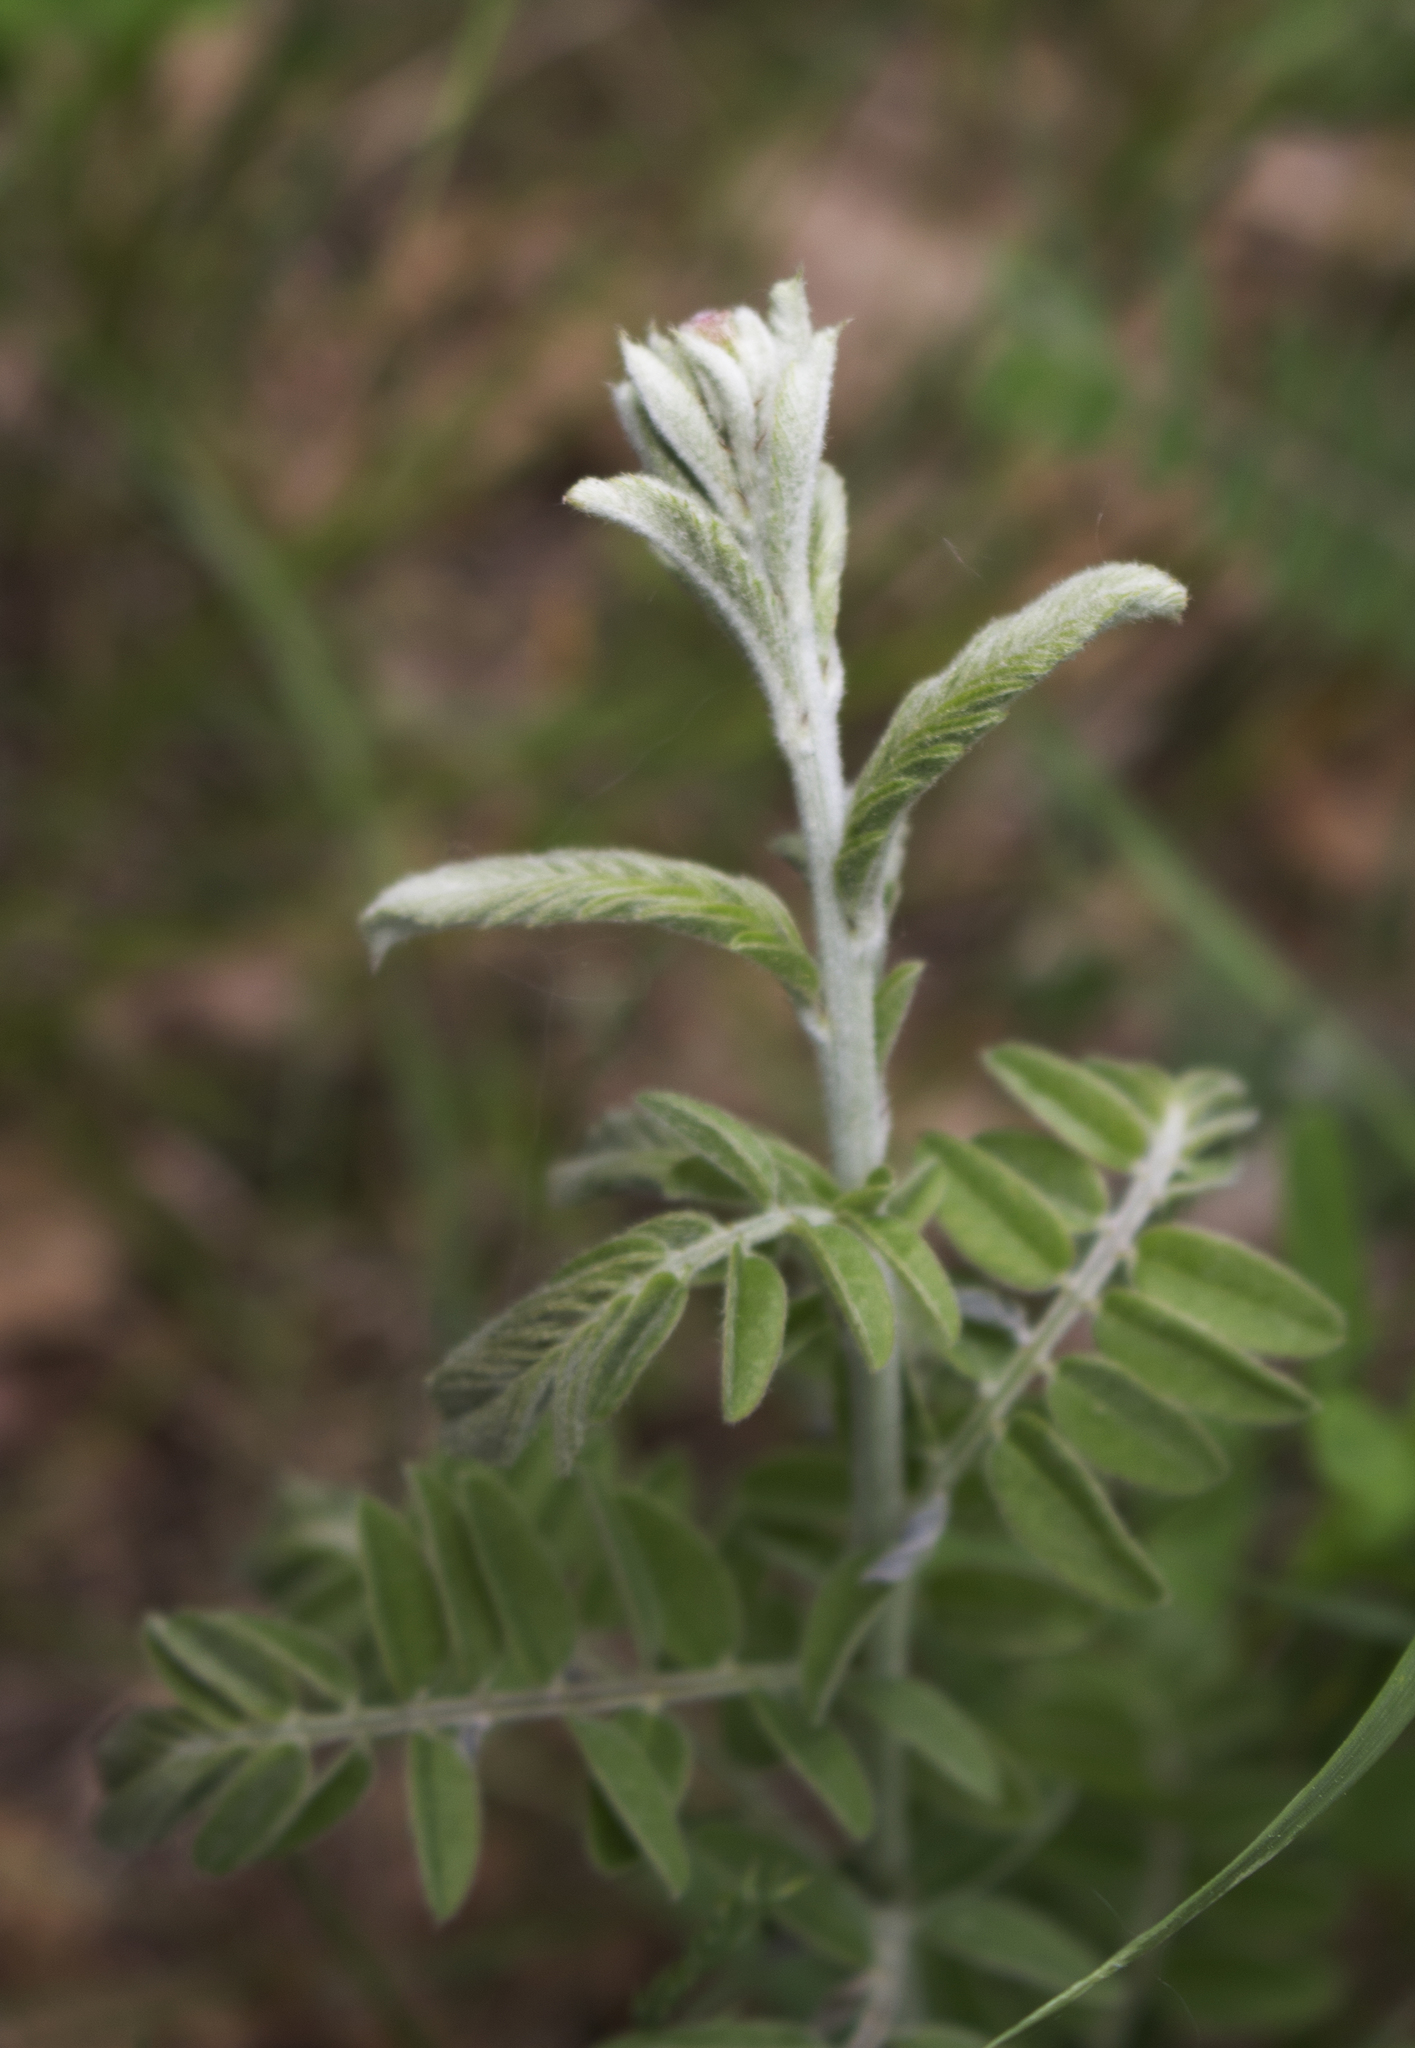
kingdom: Plantae
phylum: Tracheophyta
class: Magnoliopsida
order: Fabales
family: Fabaceae
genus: Amorpha
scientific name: Amorpha canescens
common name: Leadplant
